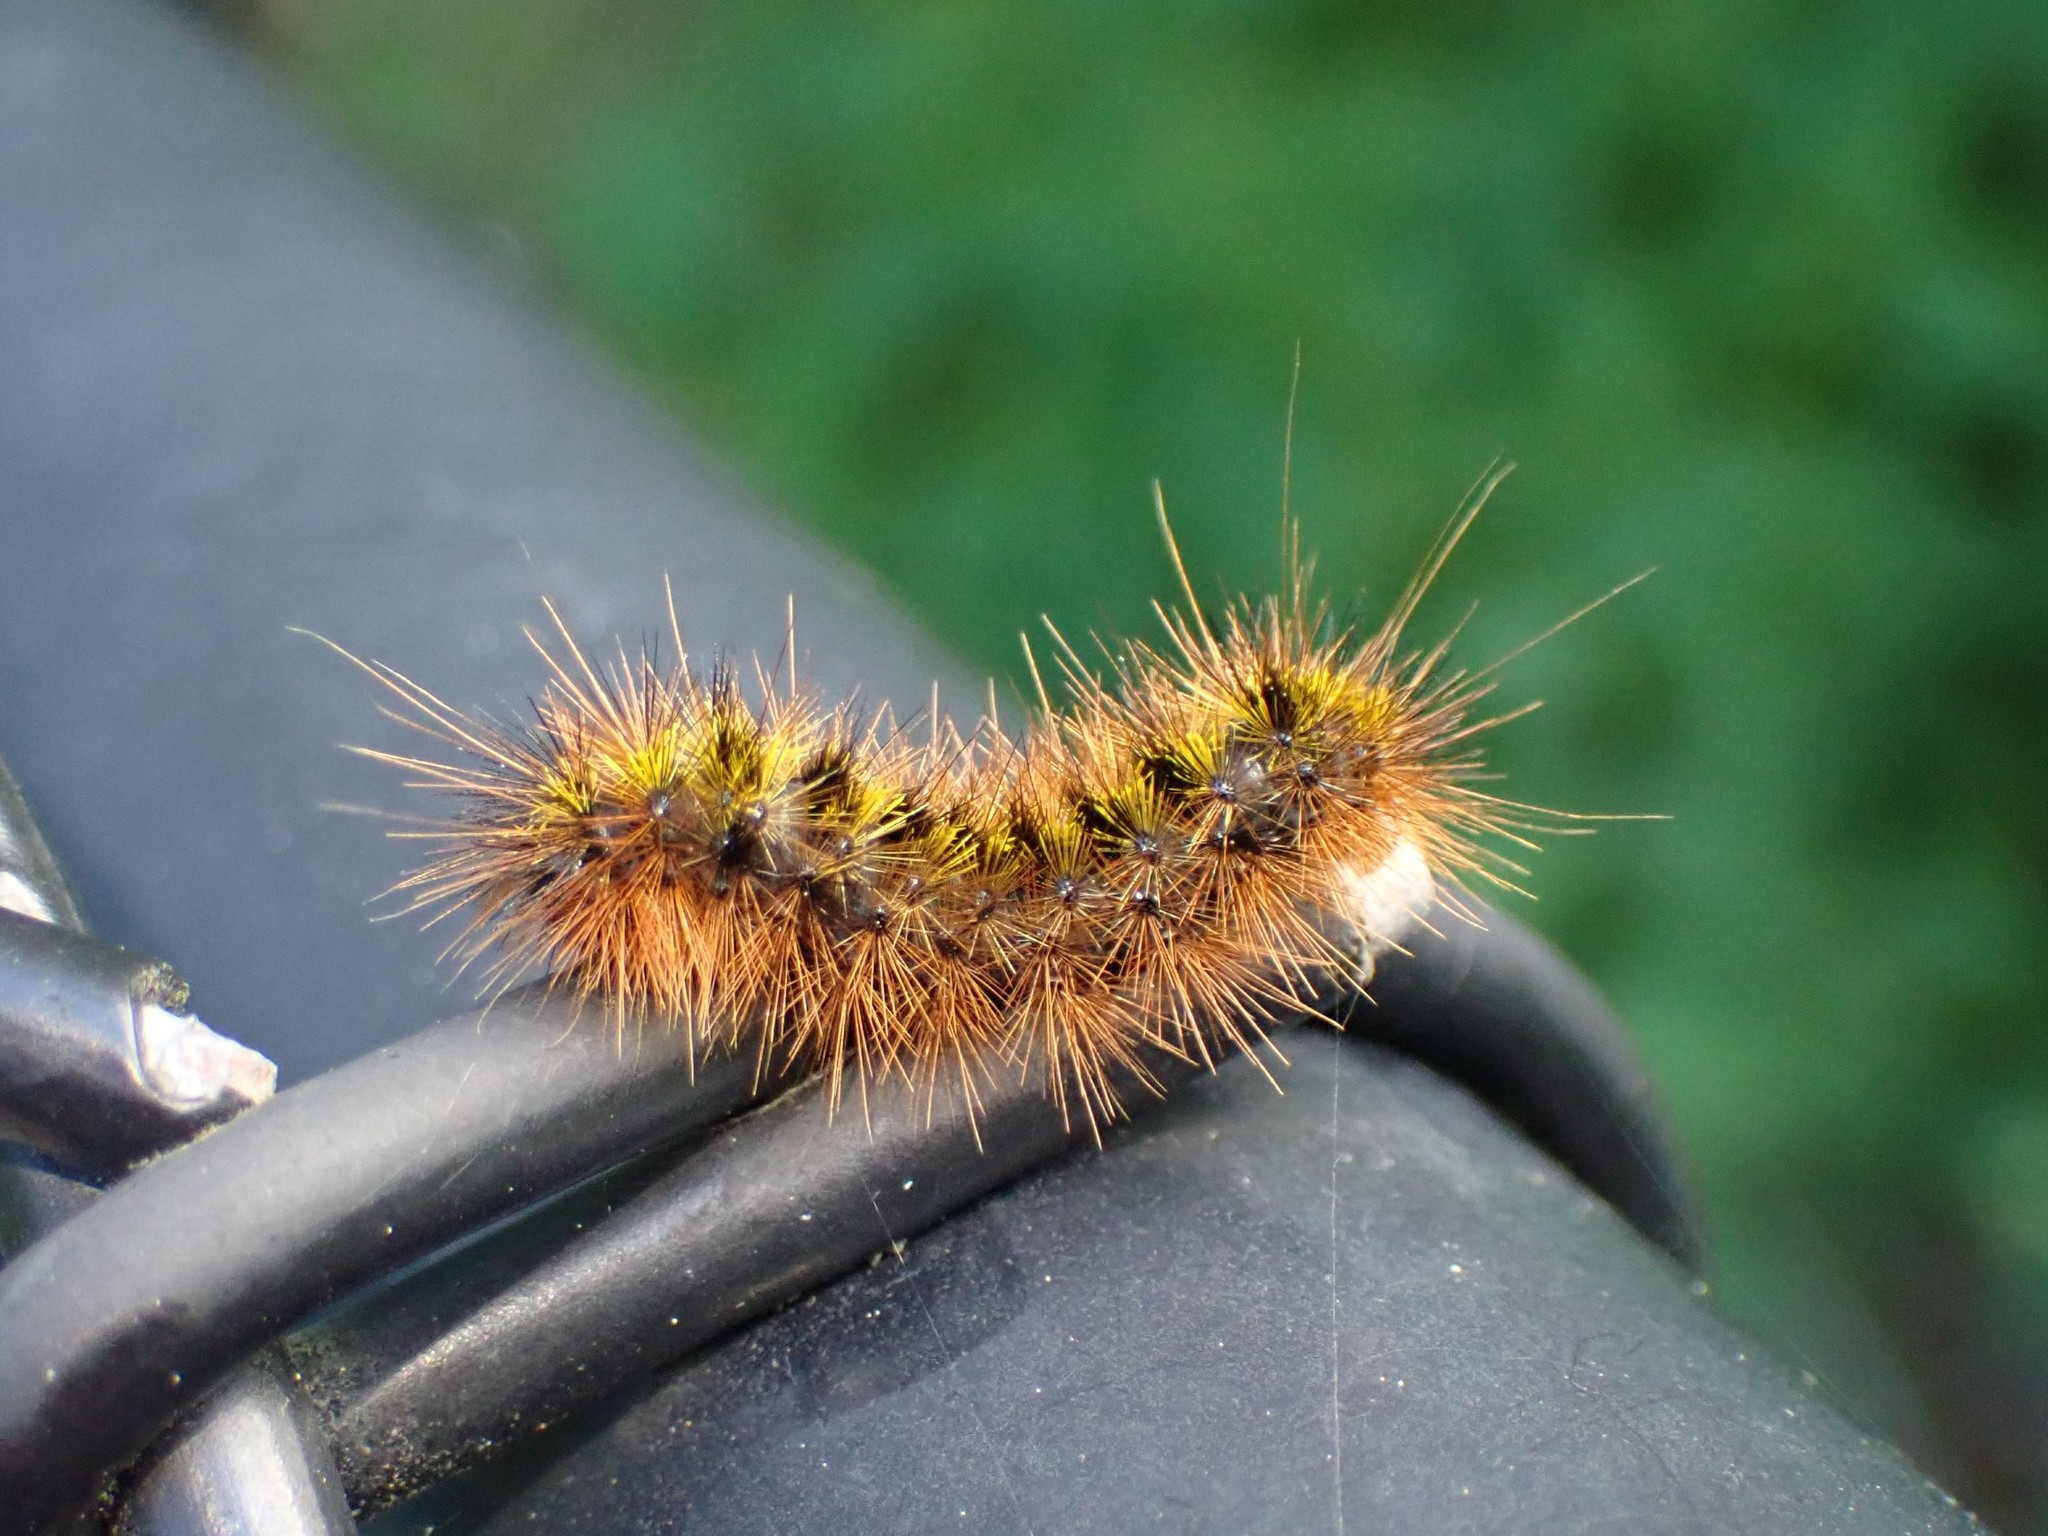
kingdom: Animalia
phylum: Arthropoda
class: Insecta
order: Lepidoptera
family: Erebidae
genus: Lophocampa
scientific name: Lophocampa argentata
